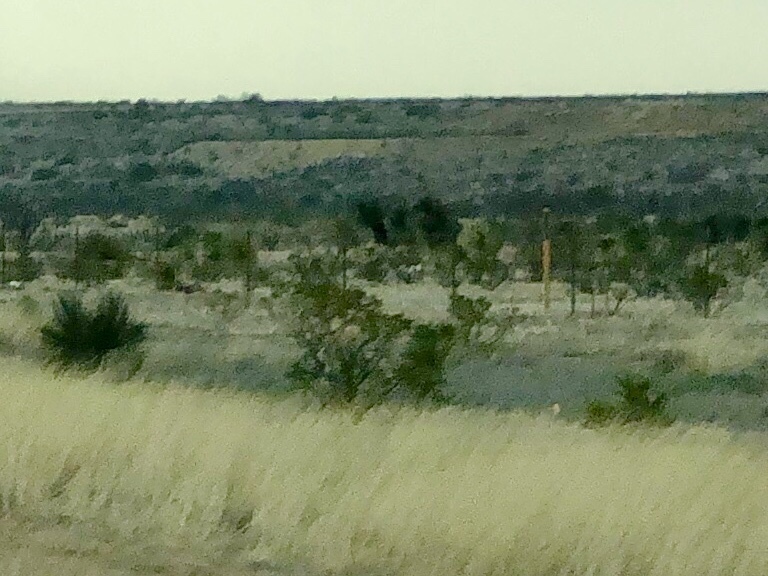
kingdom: Plantae
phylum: Tracheophyta
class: Magnoliopsida
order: Zygophyllales
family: Zygophyllaceae
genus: Larrea
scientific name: Larrea tridentata
